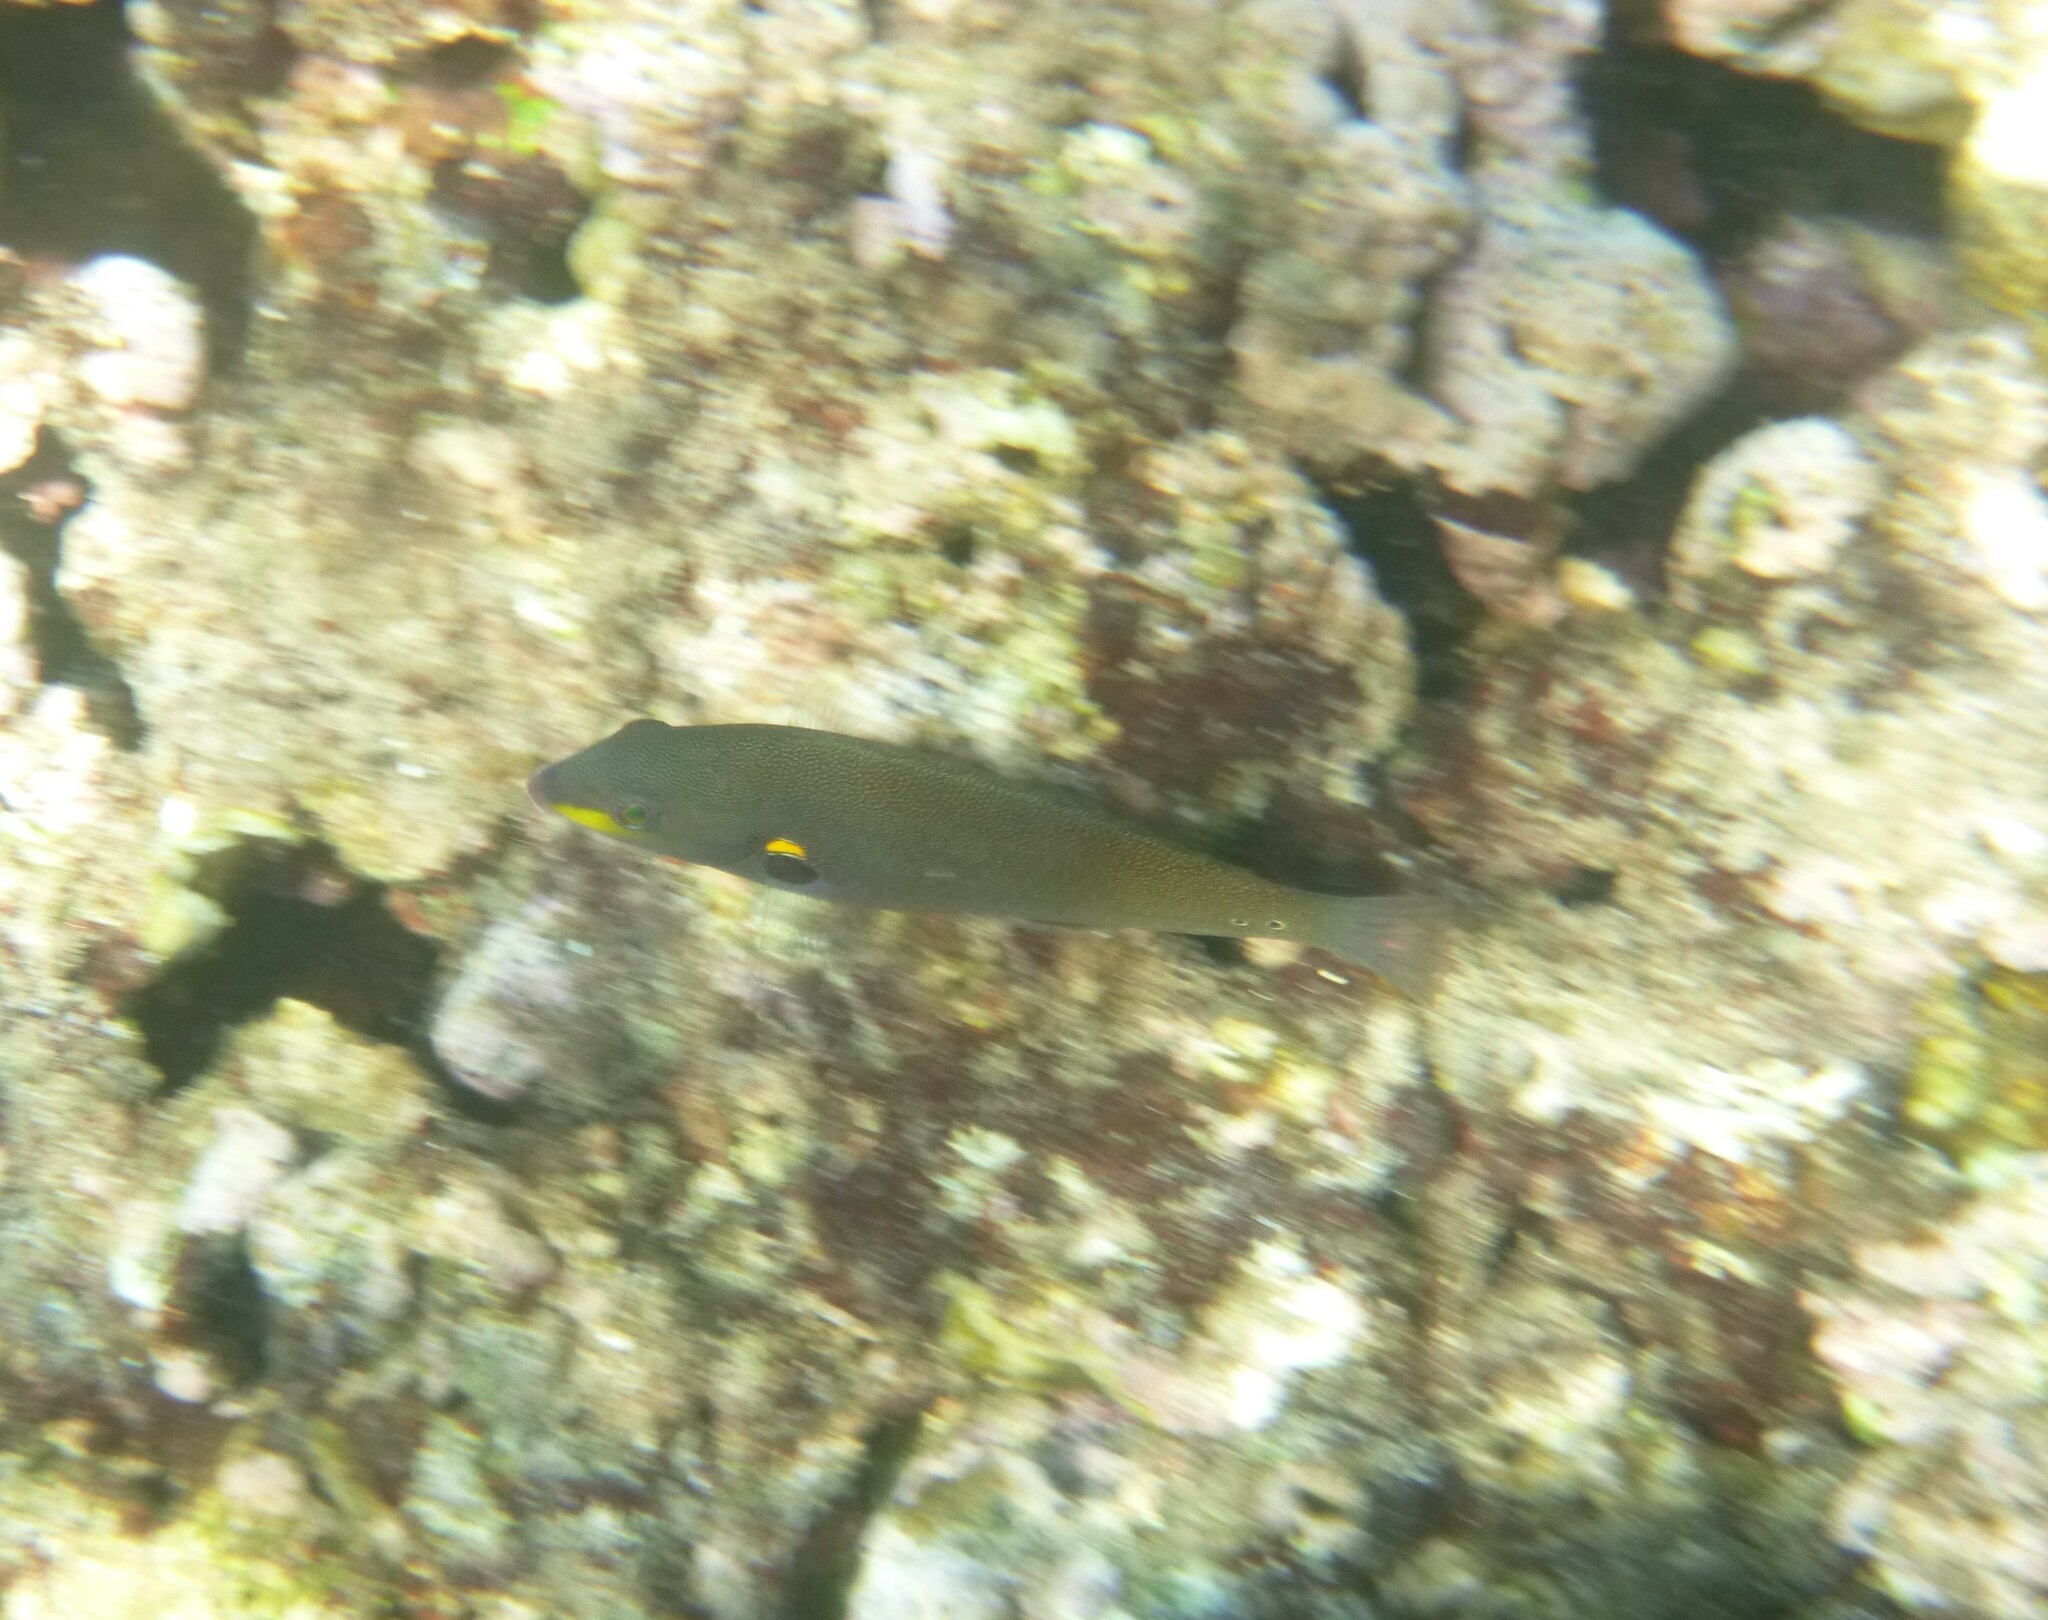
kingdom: Animalia
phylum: Chordata
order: Perciformes
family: Labridae
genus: Stethojulis
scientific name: Stethojulis balteata
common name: Belted wrasse
